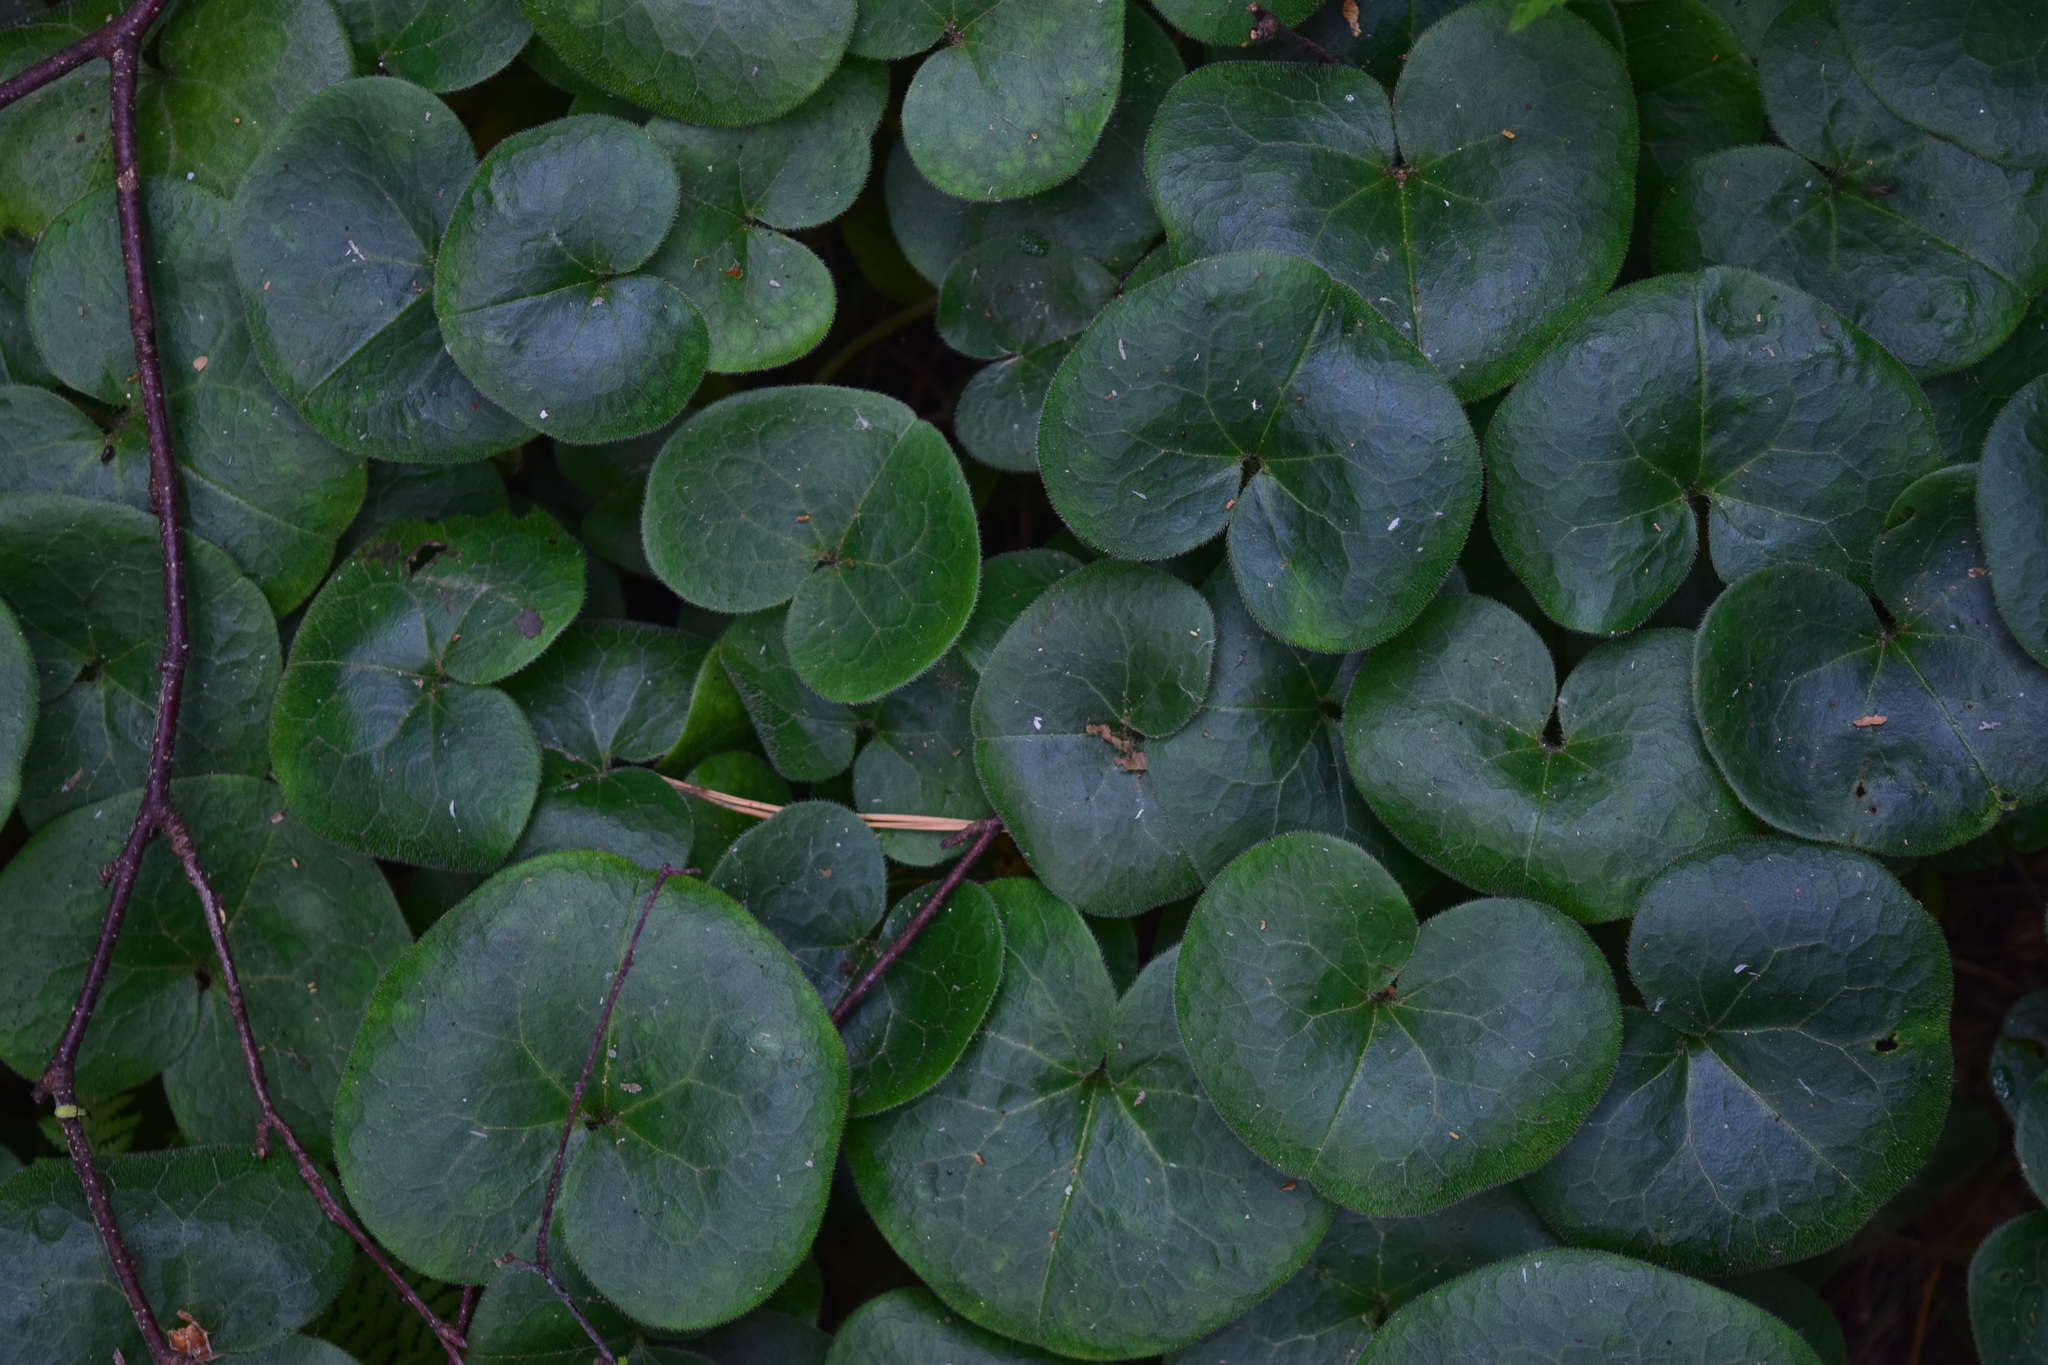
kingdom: Plantae
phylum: Tracheophyta
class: Magnoliopsida
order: Piperales
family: Aristolochiaceae
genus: Asarum
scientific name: Asarum europaeum
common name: Asarabacca
